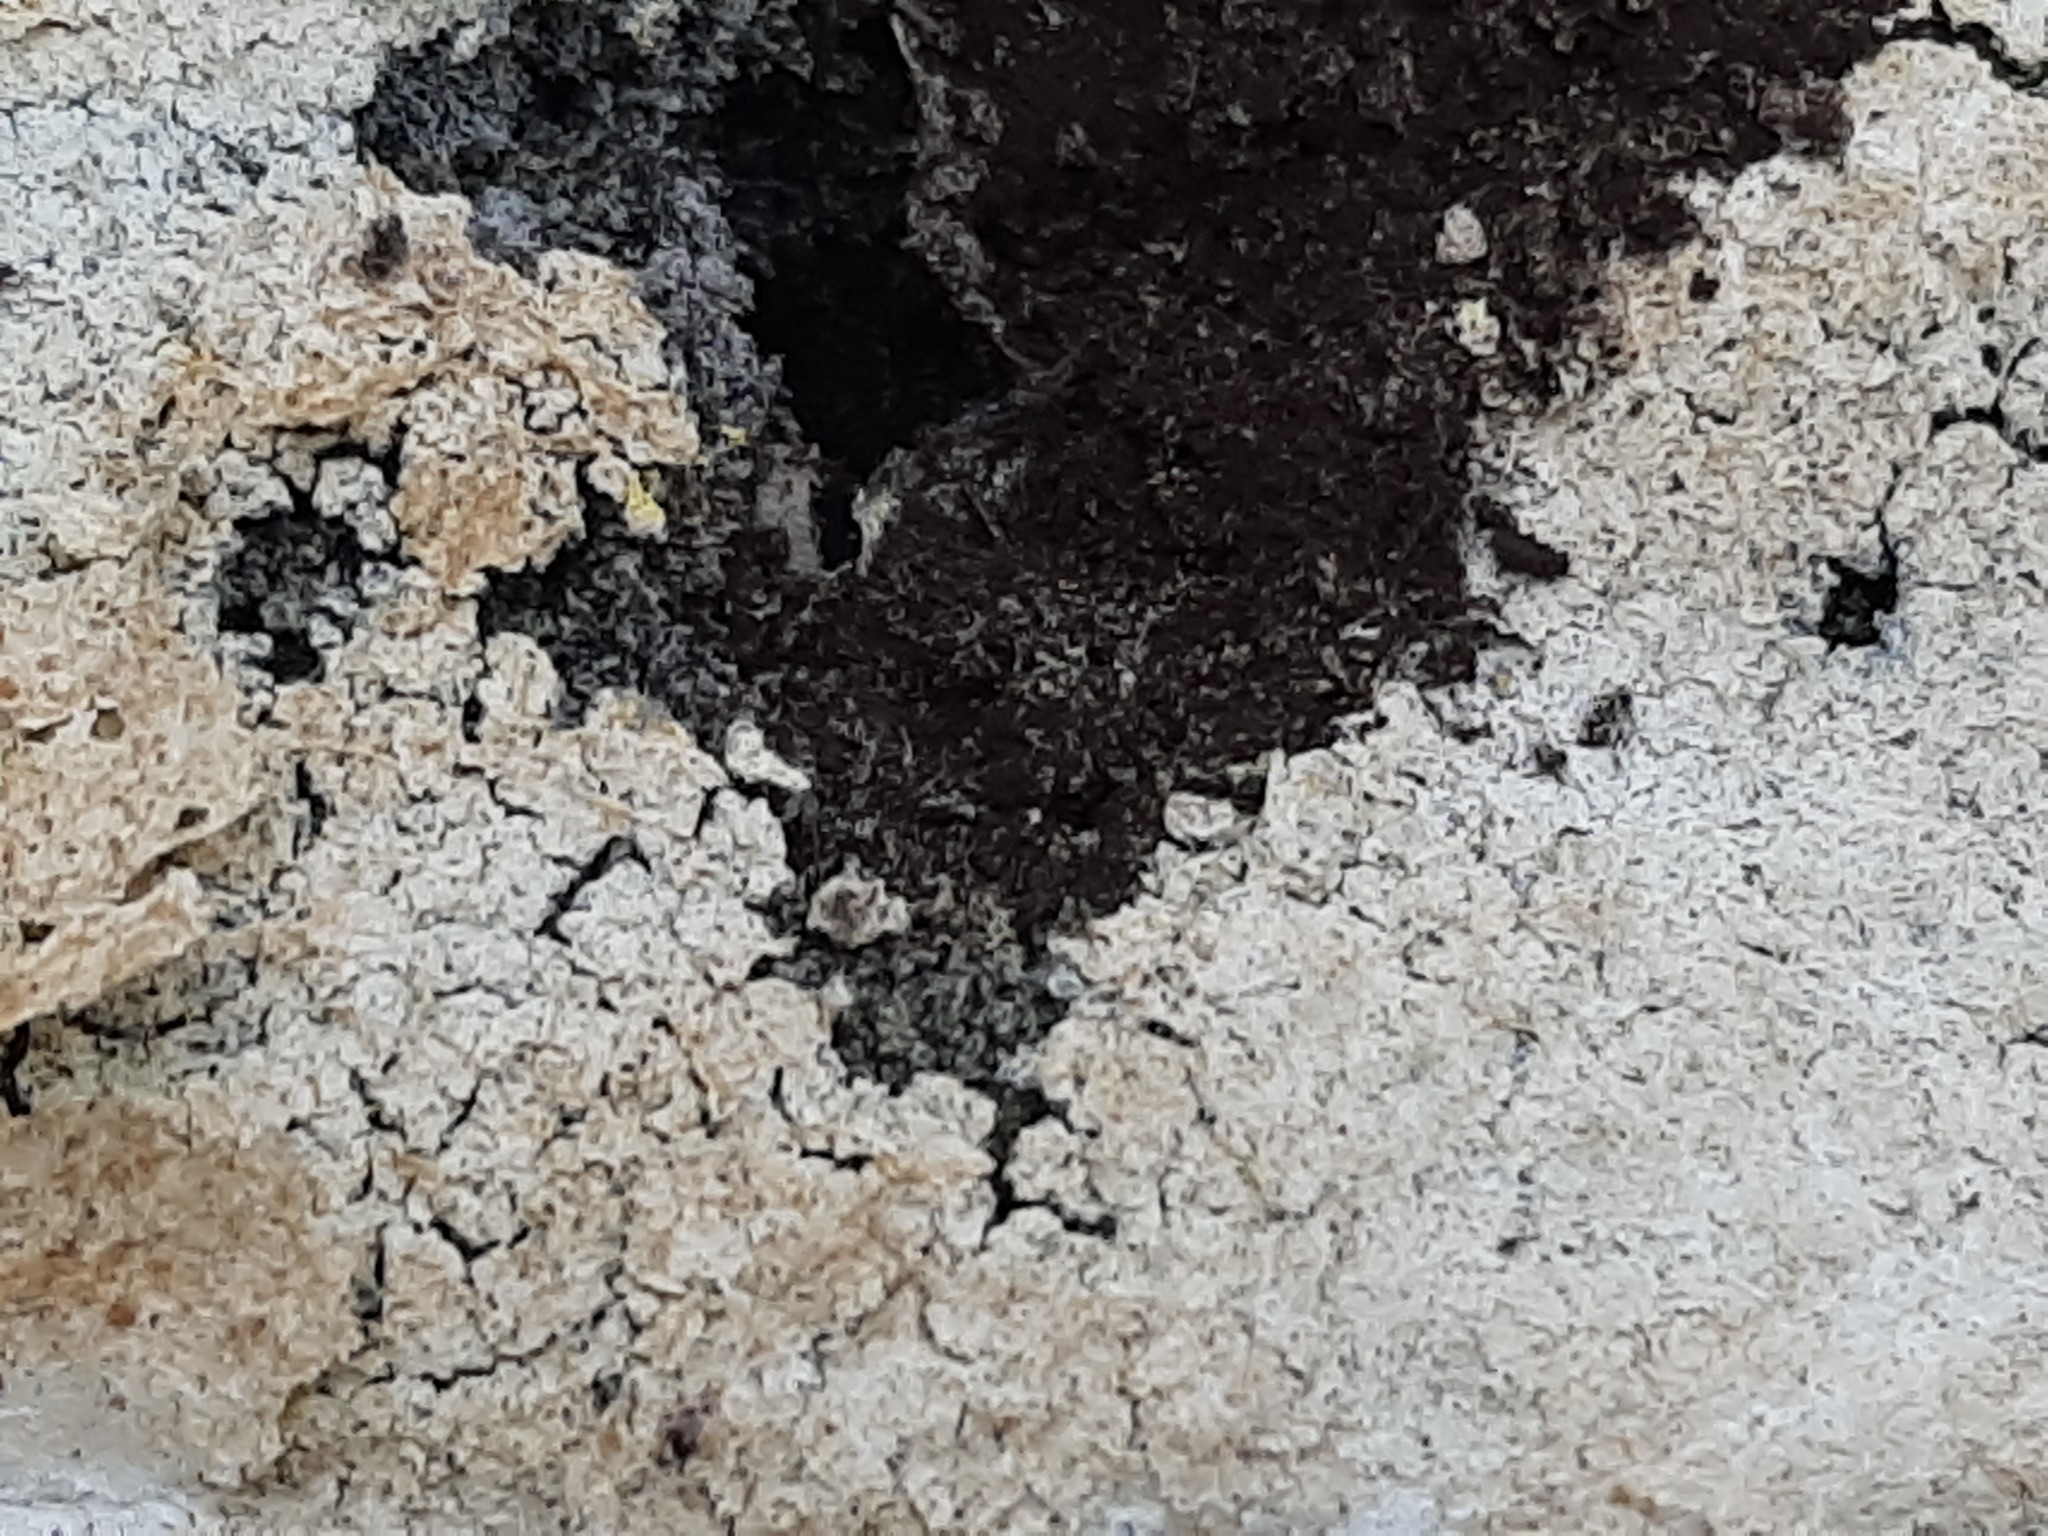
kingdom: Protozoa
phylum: Mycetozoa
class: Myxomycetes
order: Physarales
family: Physaraceae
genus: Fuligo
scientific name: Fuligo septica
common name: Dog vomit slime mold
